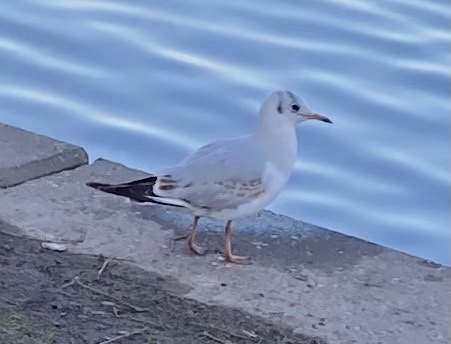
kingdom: Animalia
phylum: Chordata
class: Aves
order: Charadriiformes
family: Laridae
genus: Chroicocephalus
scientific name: Chroicocephalus ridibundus
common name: Black-headed gull
